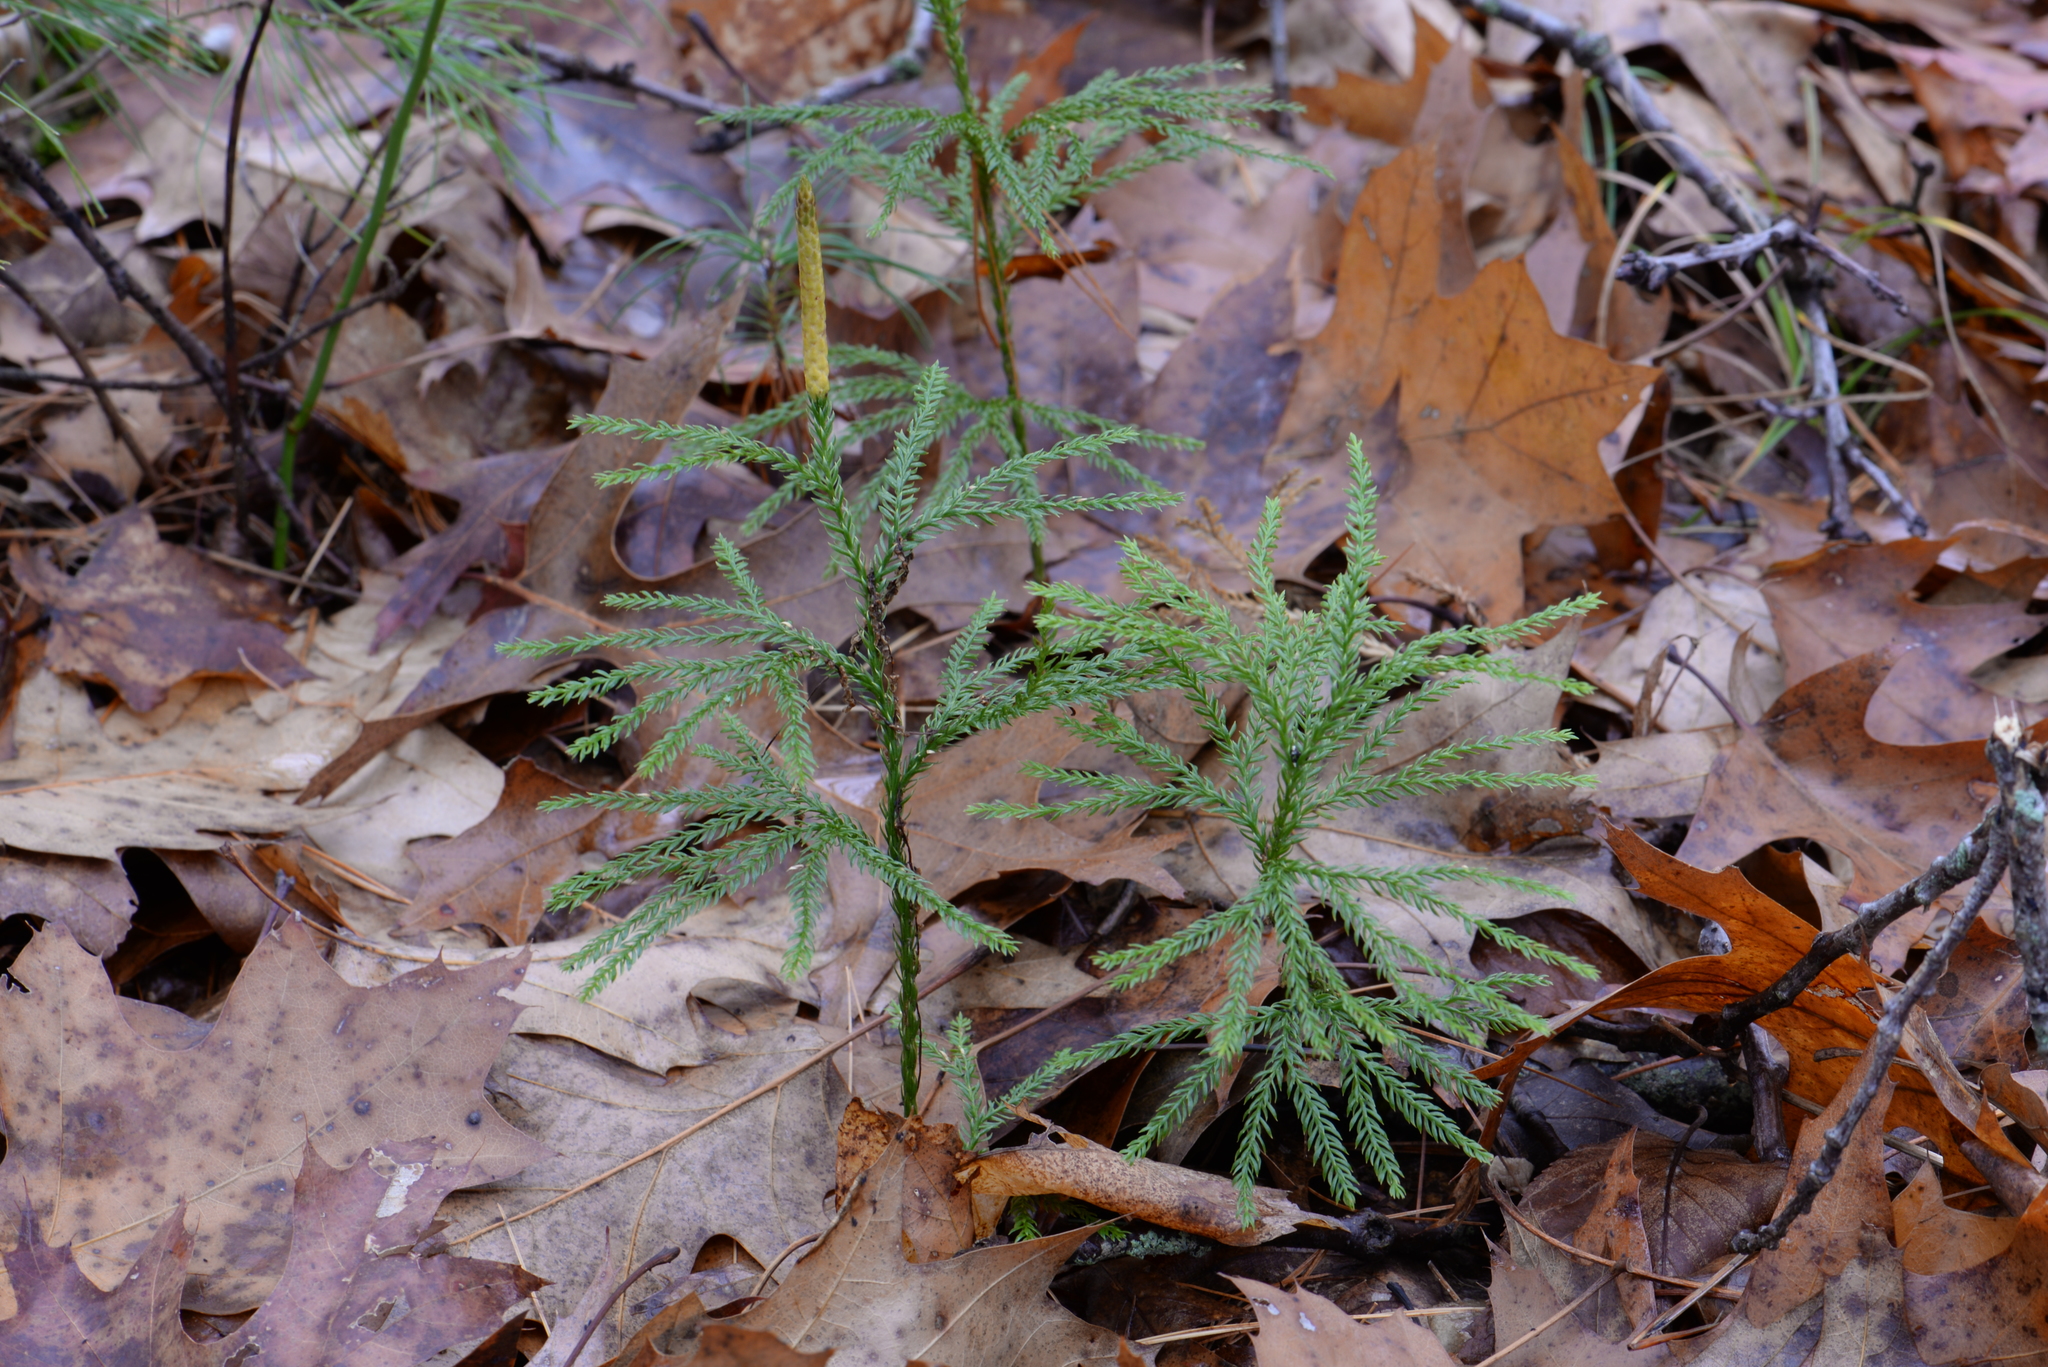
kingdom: Plantae
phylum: Tracheophyta
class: Lycopodiopsida
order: Lycopodiales
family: Lycopodiaceae
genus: Dendrolycopodium
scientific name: Dendrolycopodium obscurum
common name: Common ground-pine
